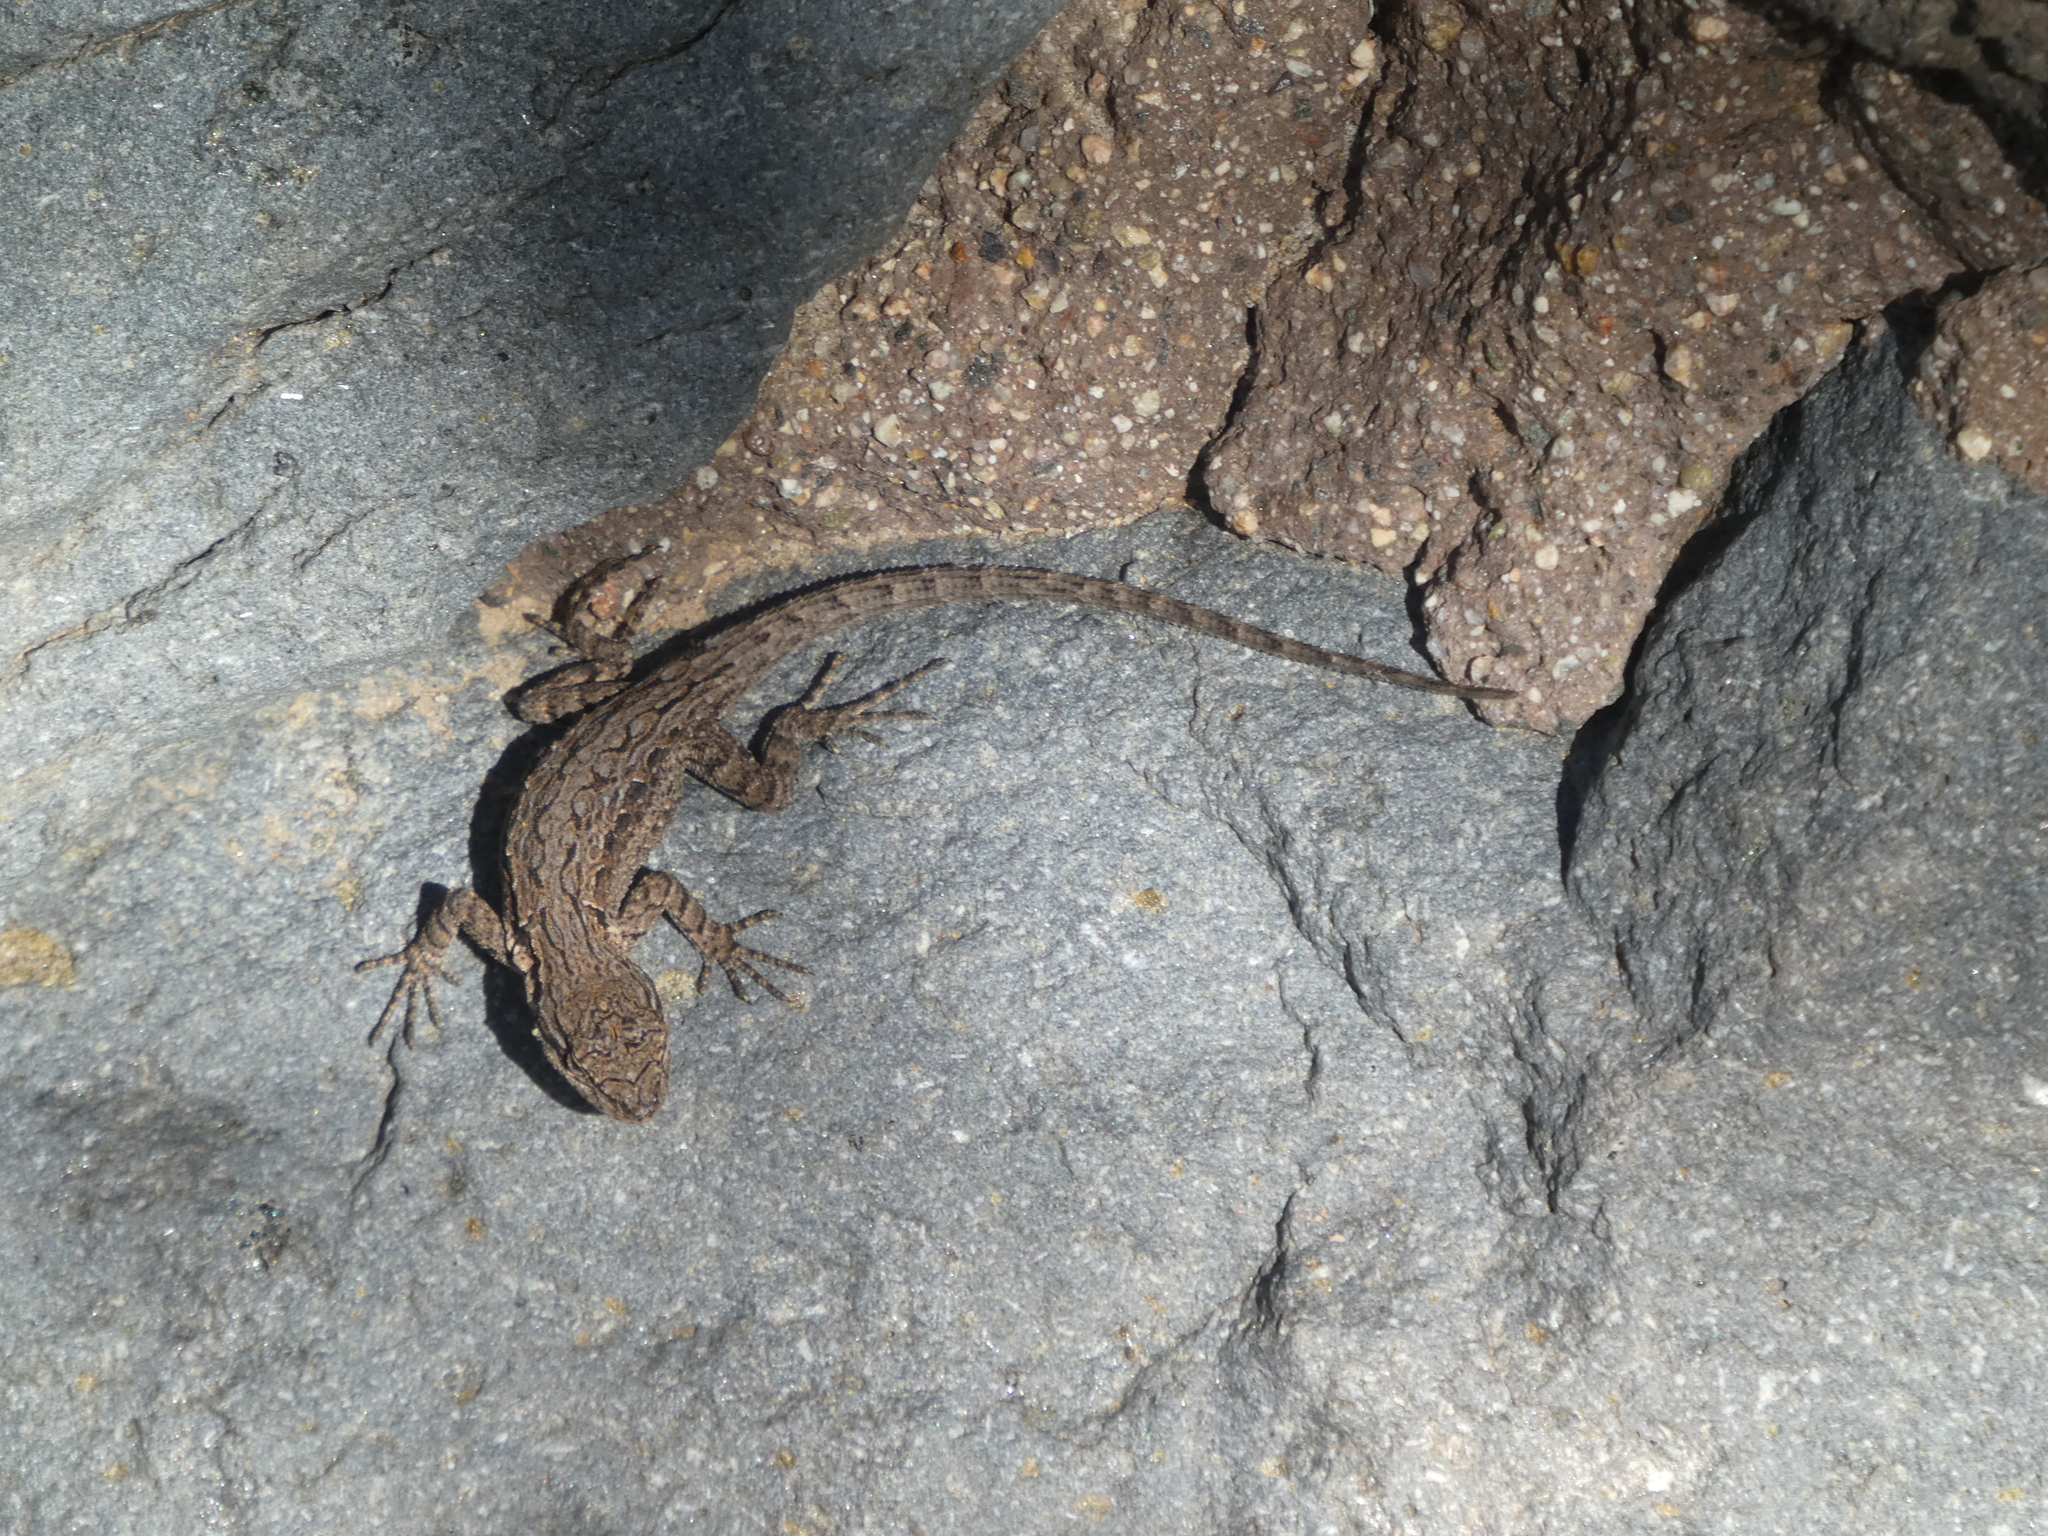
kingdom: Animalia
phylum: Chordata
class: Squamata
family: Phrynosomatidae
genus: Urosaurus
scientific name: Urosaurus ornatus
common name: Ornate tree lizard
